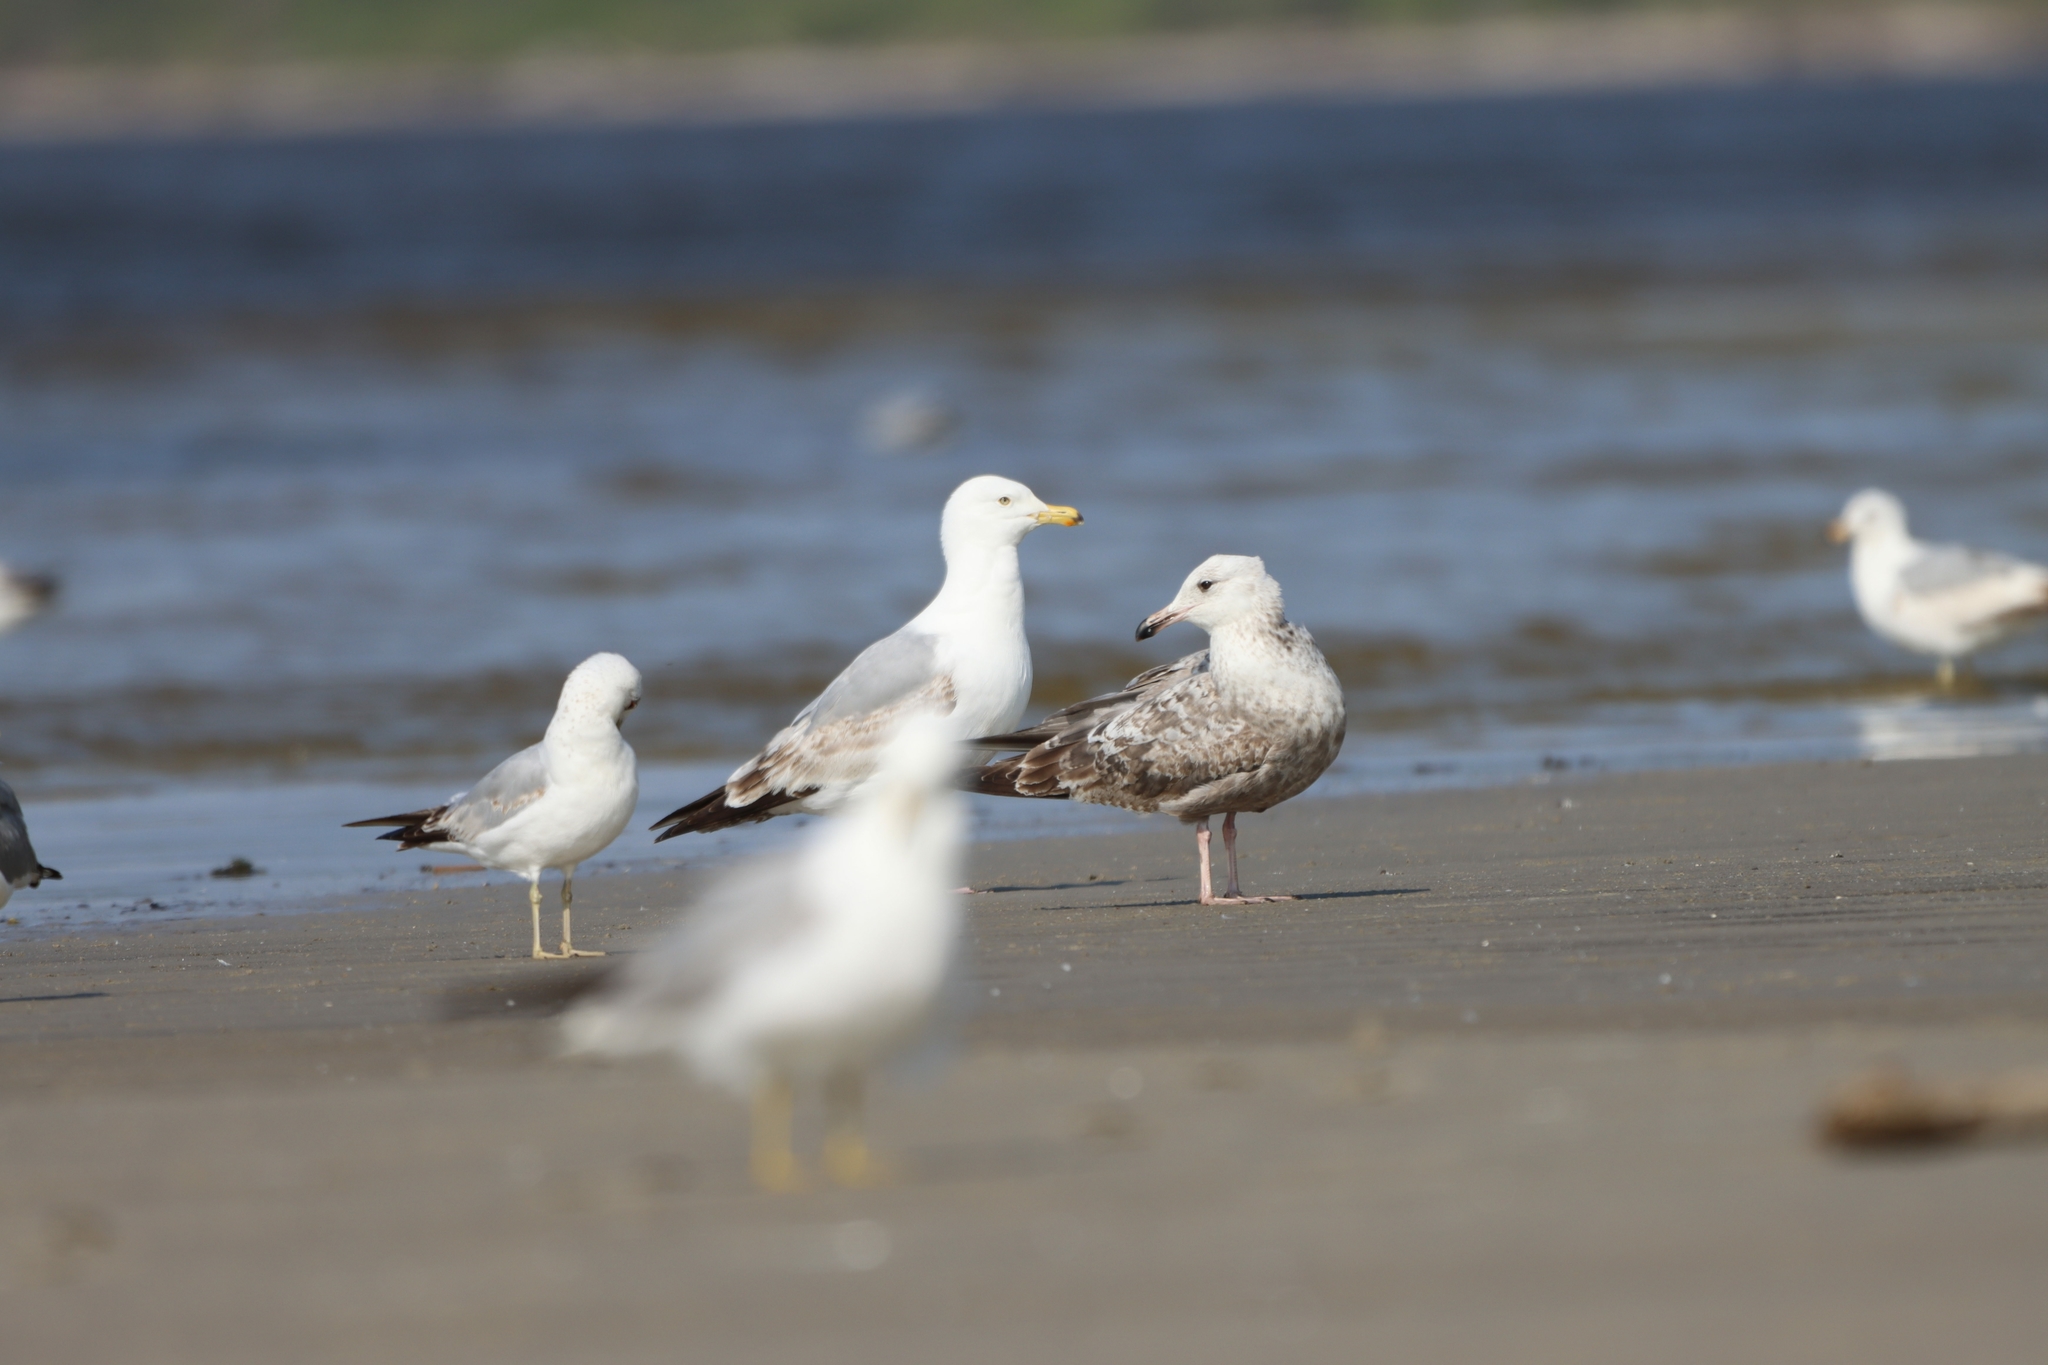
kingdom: Animalia
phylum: Chordata
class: Aves
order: Charadriiformes
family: Laridae
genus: Larus
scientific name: Larus argentatus
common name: Herring gull
